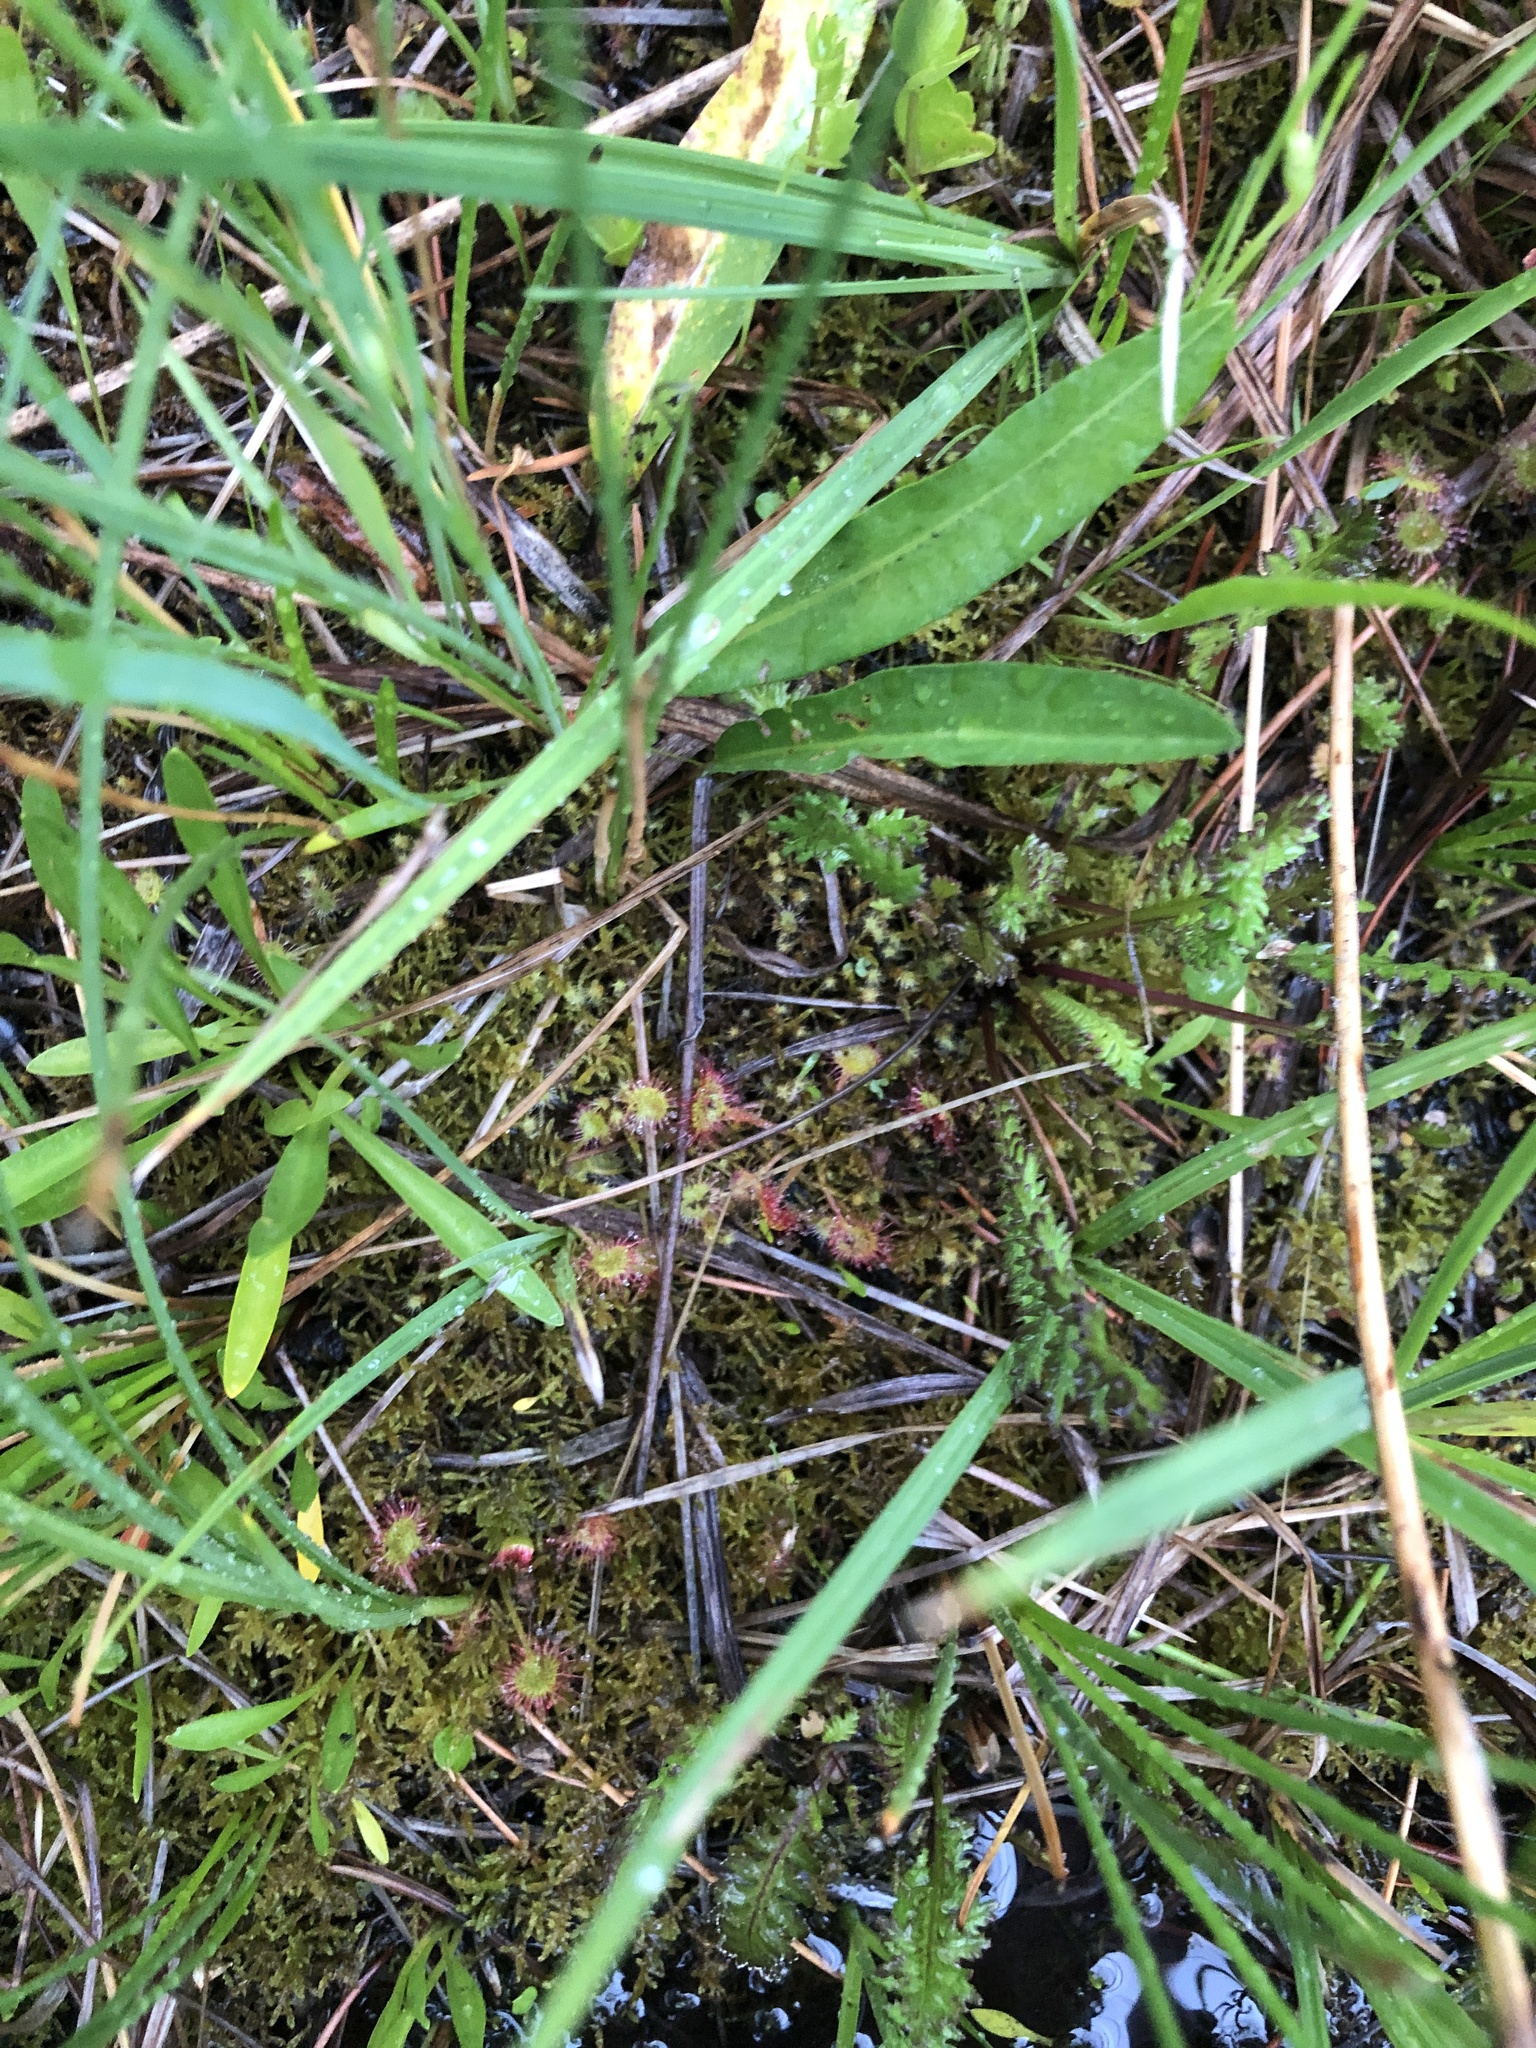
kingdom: Plantae
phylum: Tracheophyta
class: Magnoliopsida
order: Caryophyllales
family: Droseraceae
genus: Drosera
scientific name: Drosera rotundifolia
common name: Round-leaved sundew
